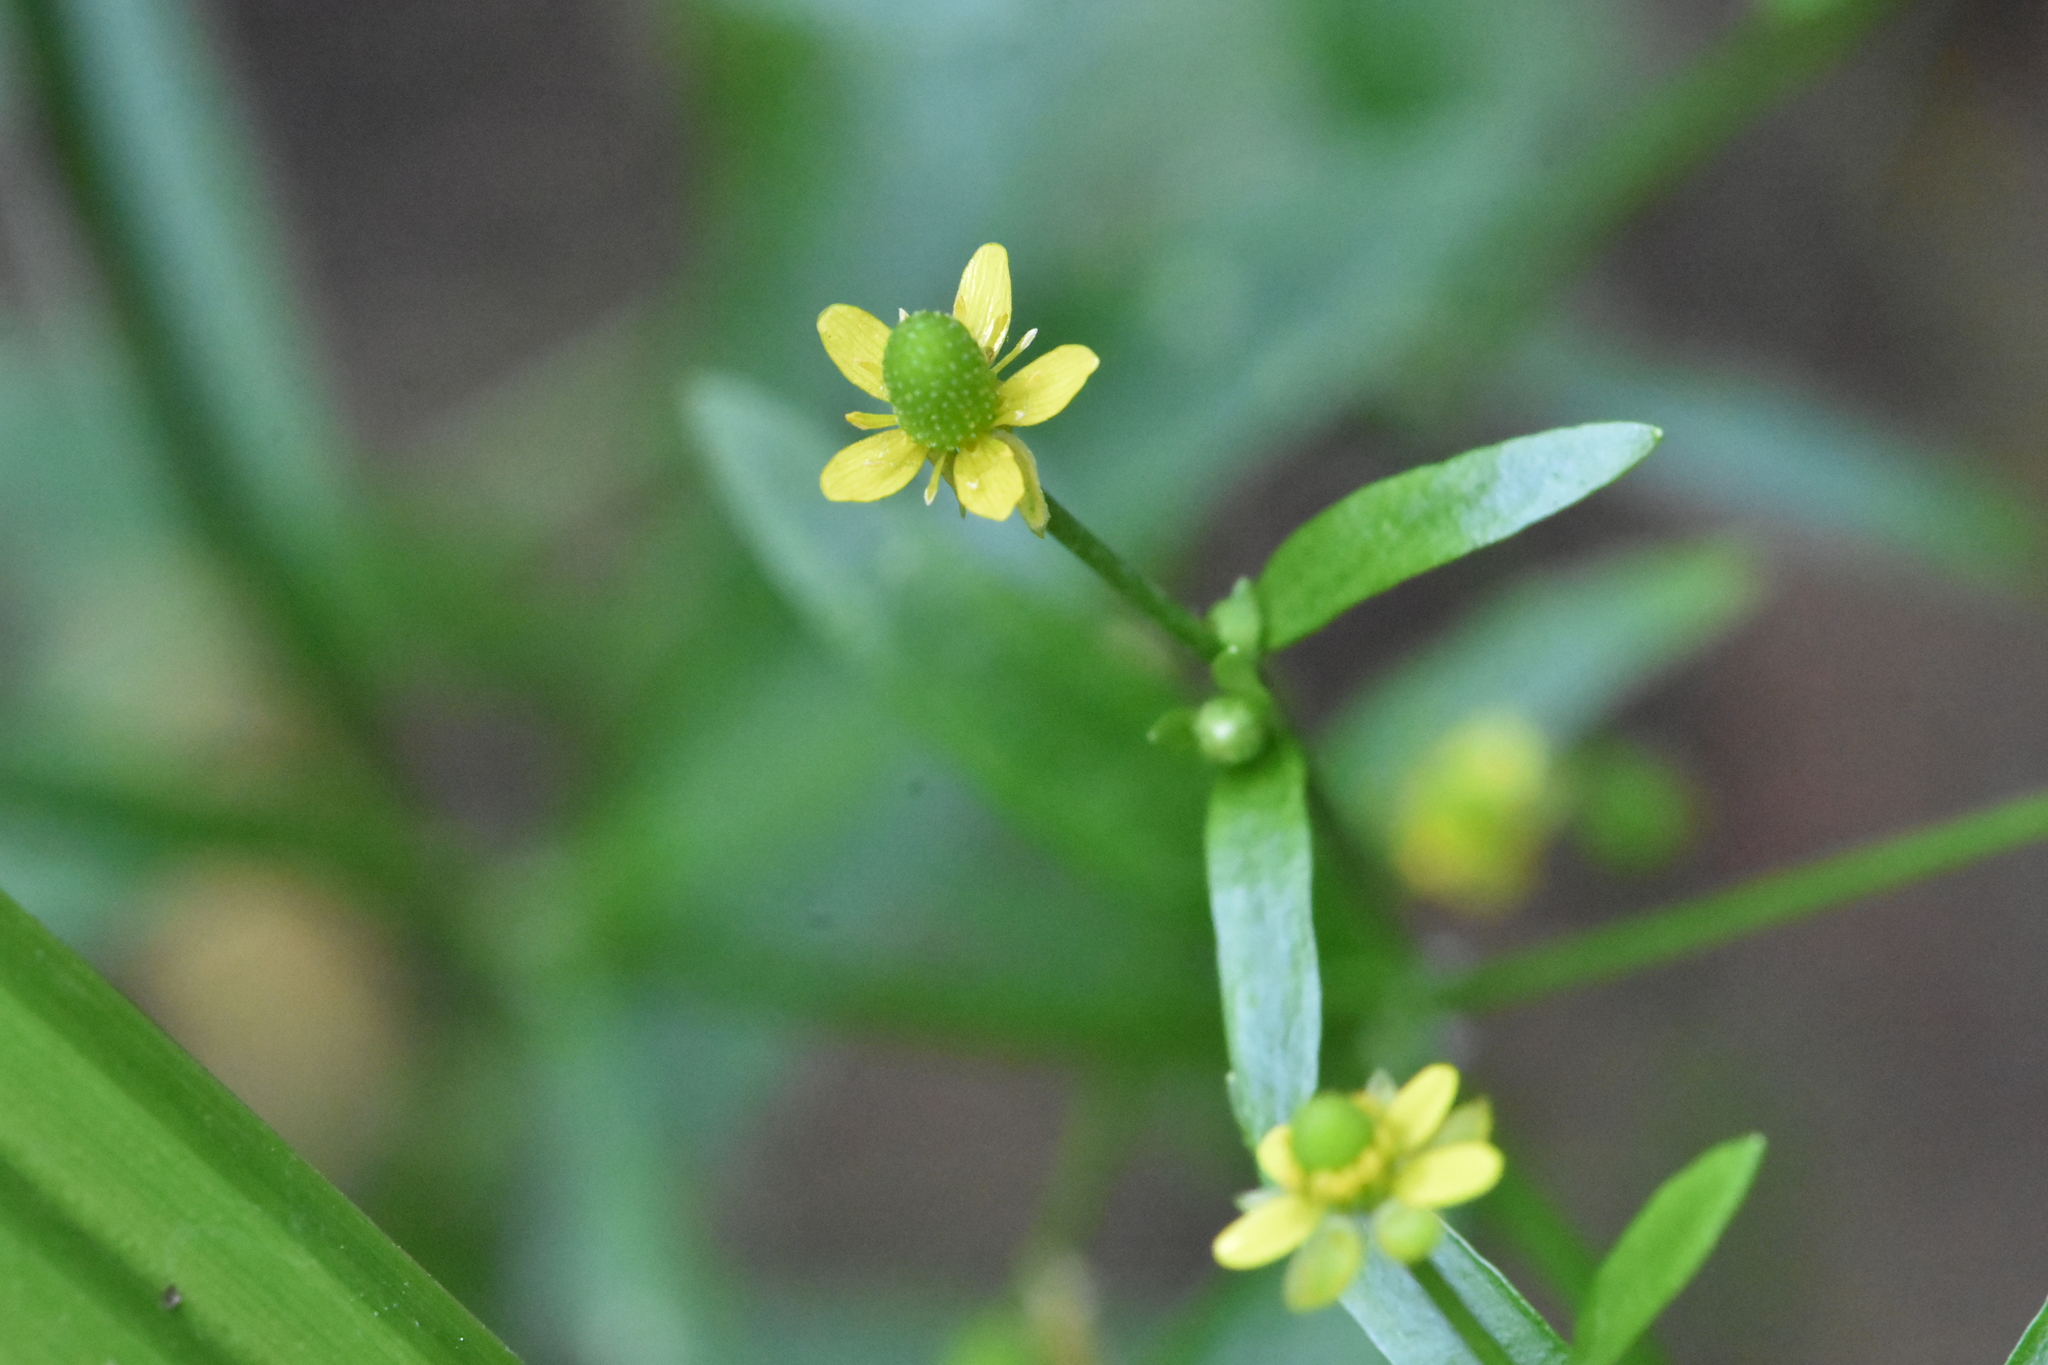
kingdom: Plantae
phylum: Tracheophyta
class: Magnoliopsida
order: Ranunculales
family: Ranunculaceae
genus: Ranunculus
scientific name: Ranunculus sceleratus
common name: Celery-leaved buttercup
